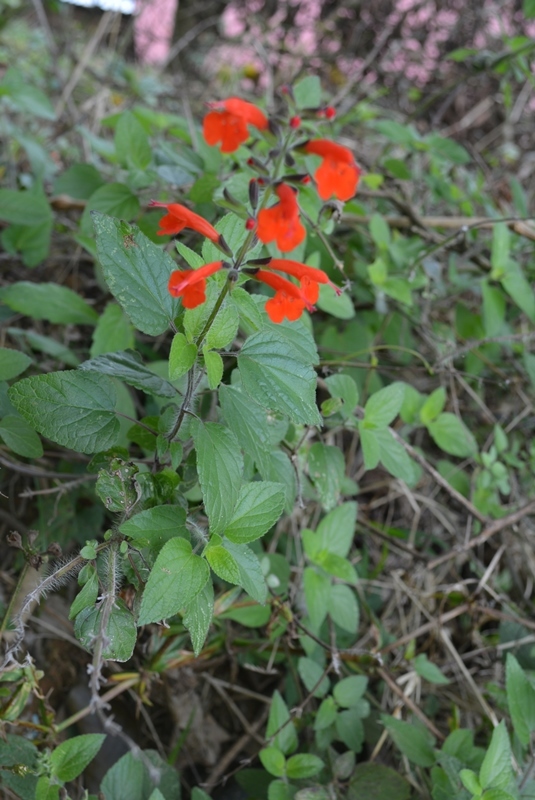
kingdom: Plantae
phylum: Tracheophyta
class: Magnoliopsida
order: Lamiales
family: Lamiaceae
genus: Salvia
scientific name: Salvia coccinea
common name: Blood sage
